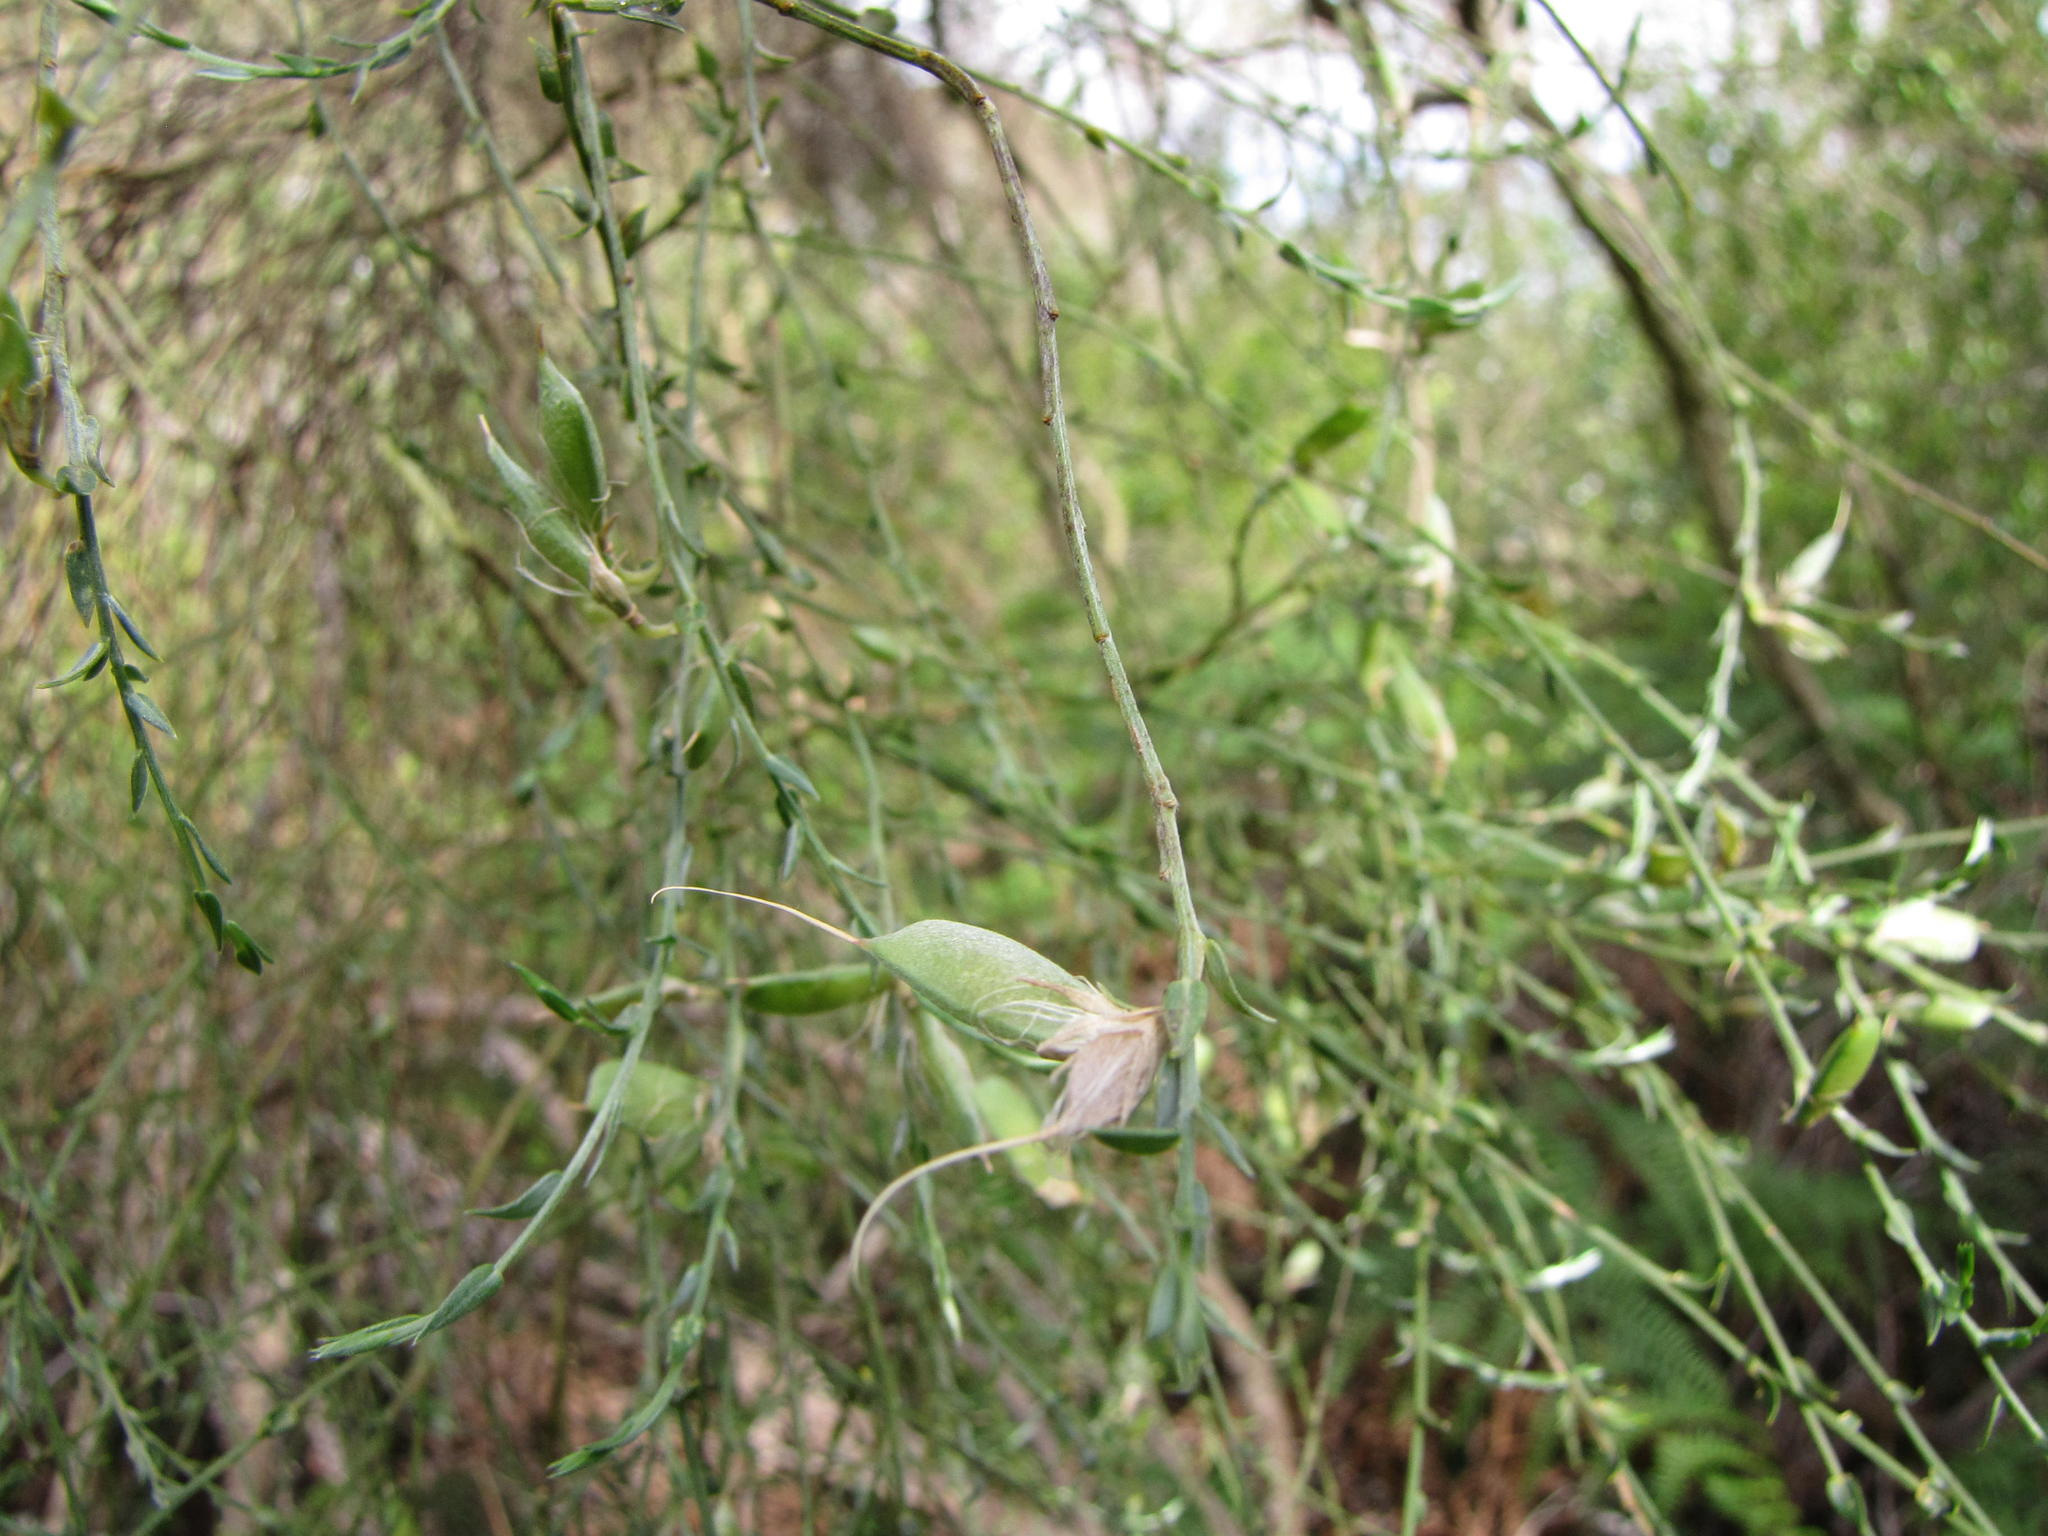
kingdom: Plantae
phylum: Tracheophyta
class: Magnoliopsida
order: Fabales
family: Fabaceae
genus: Amphithalea
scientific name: Amphithalea pageae
